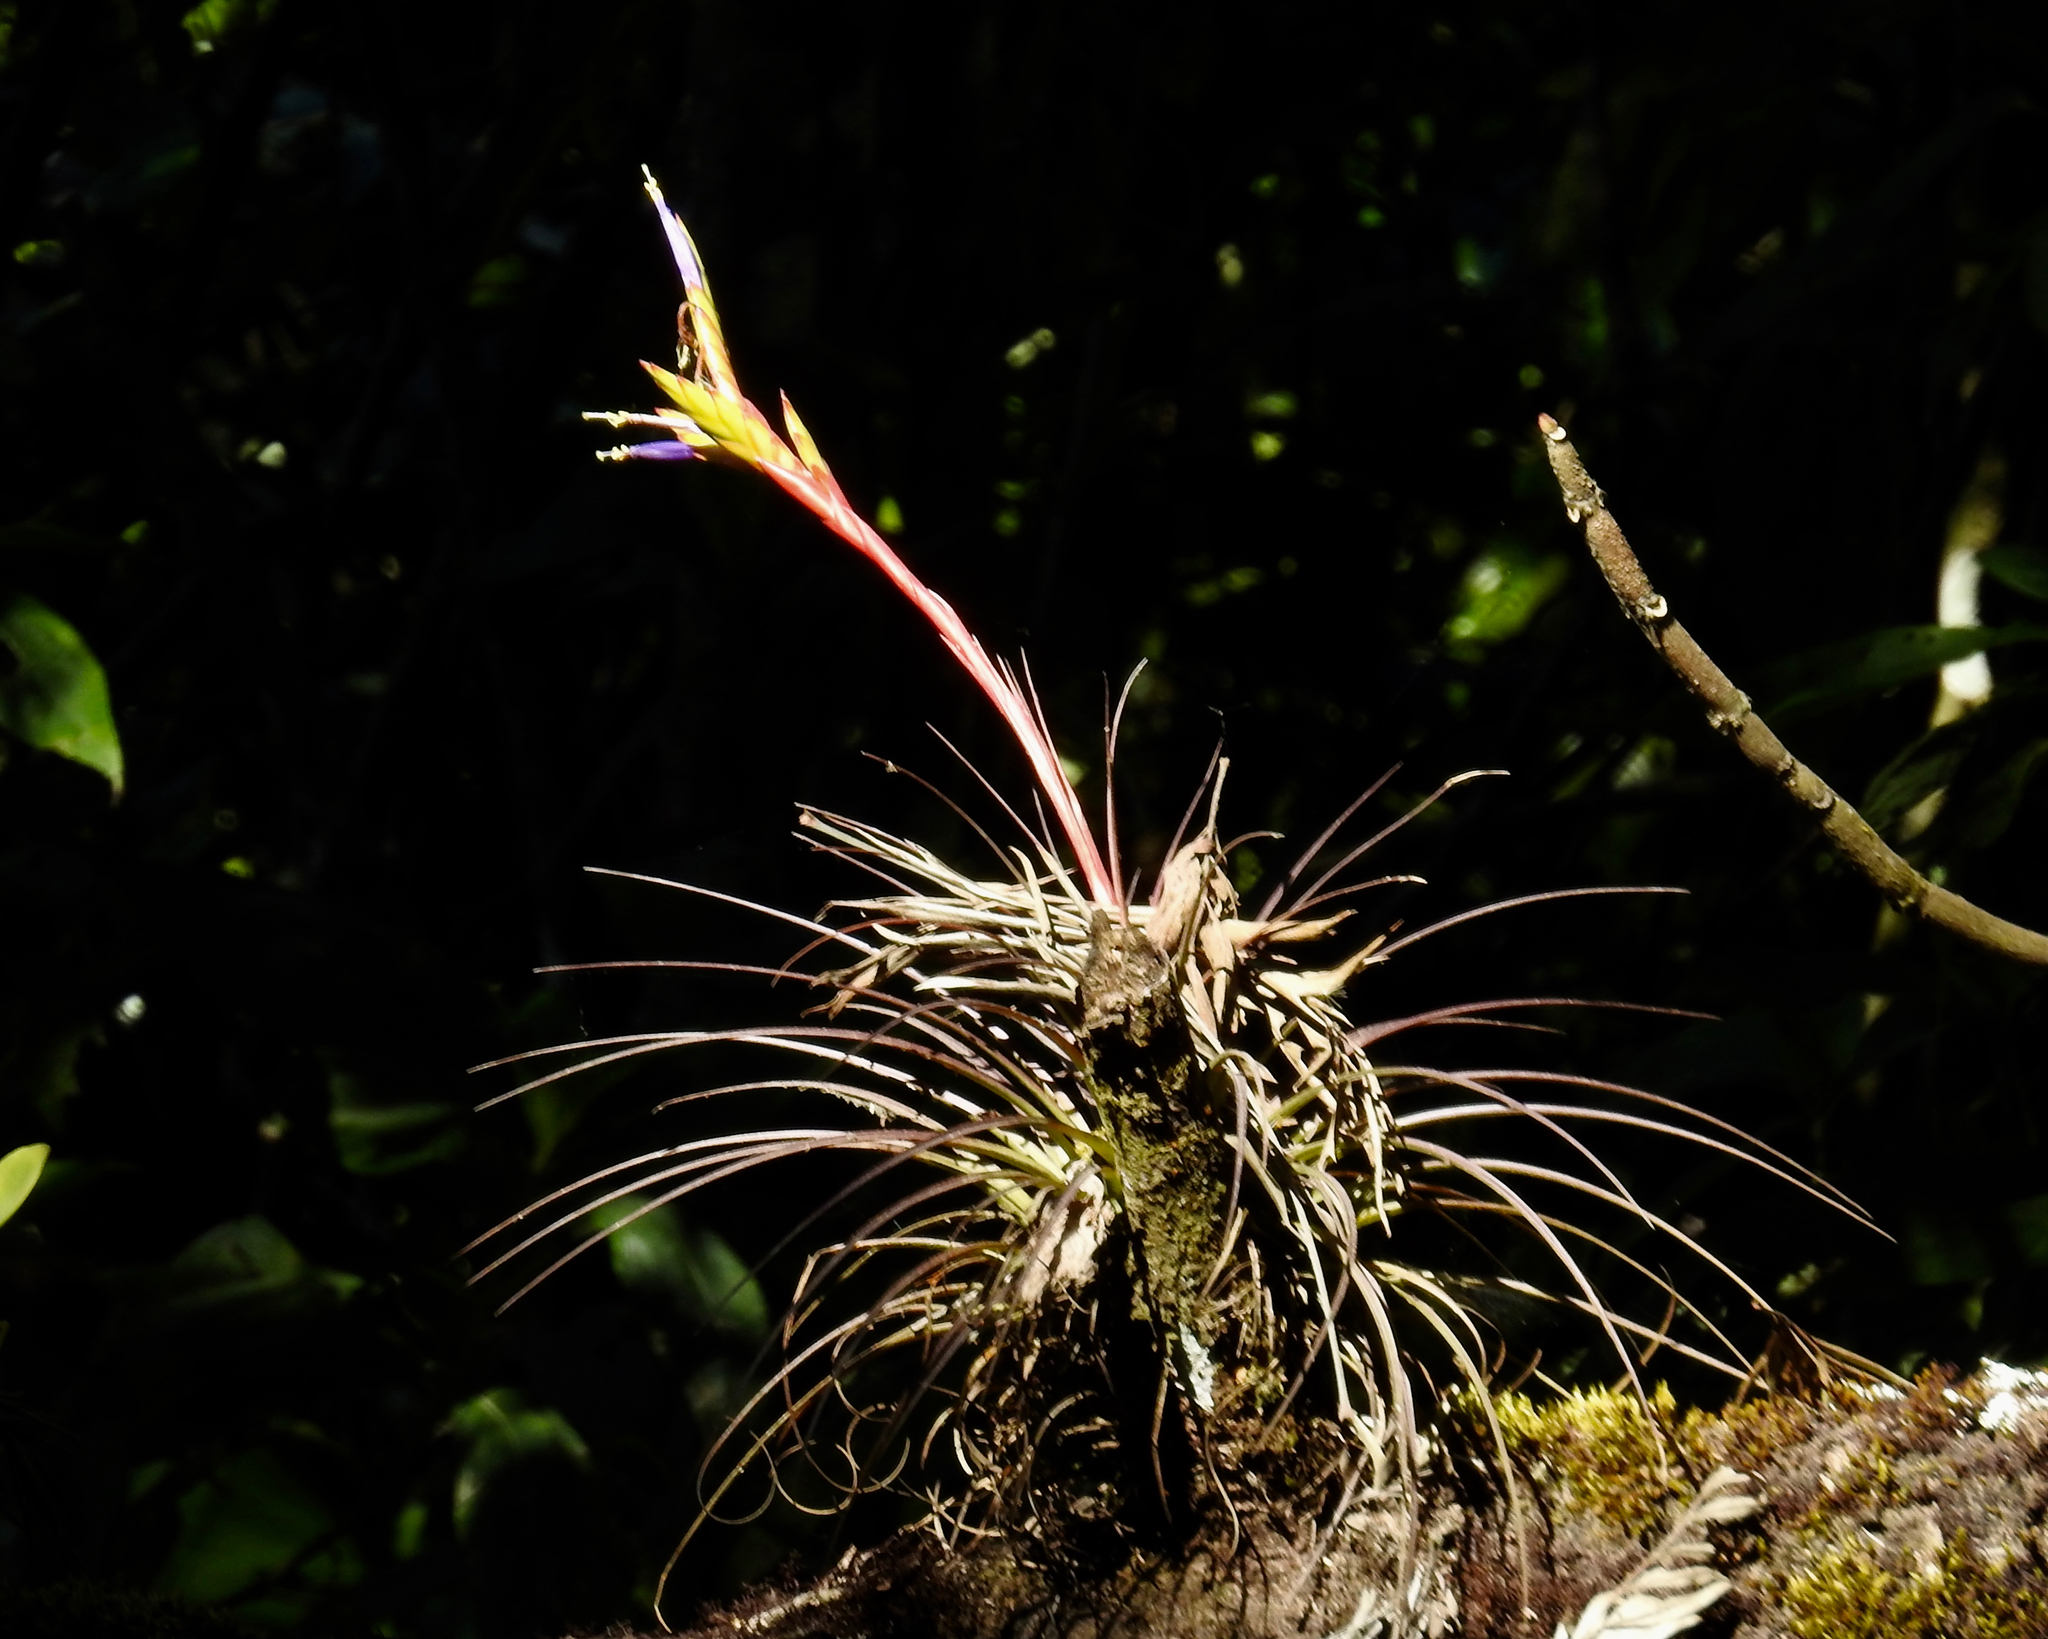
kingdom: Plantae
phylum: Tracheophyta
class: Liliopsida
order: Poales
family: Bromeliaceae
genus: Tillandsia
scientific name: Tillandsia tricolor
